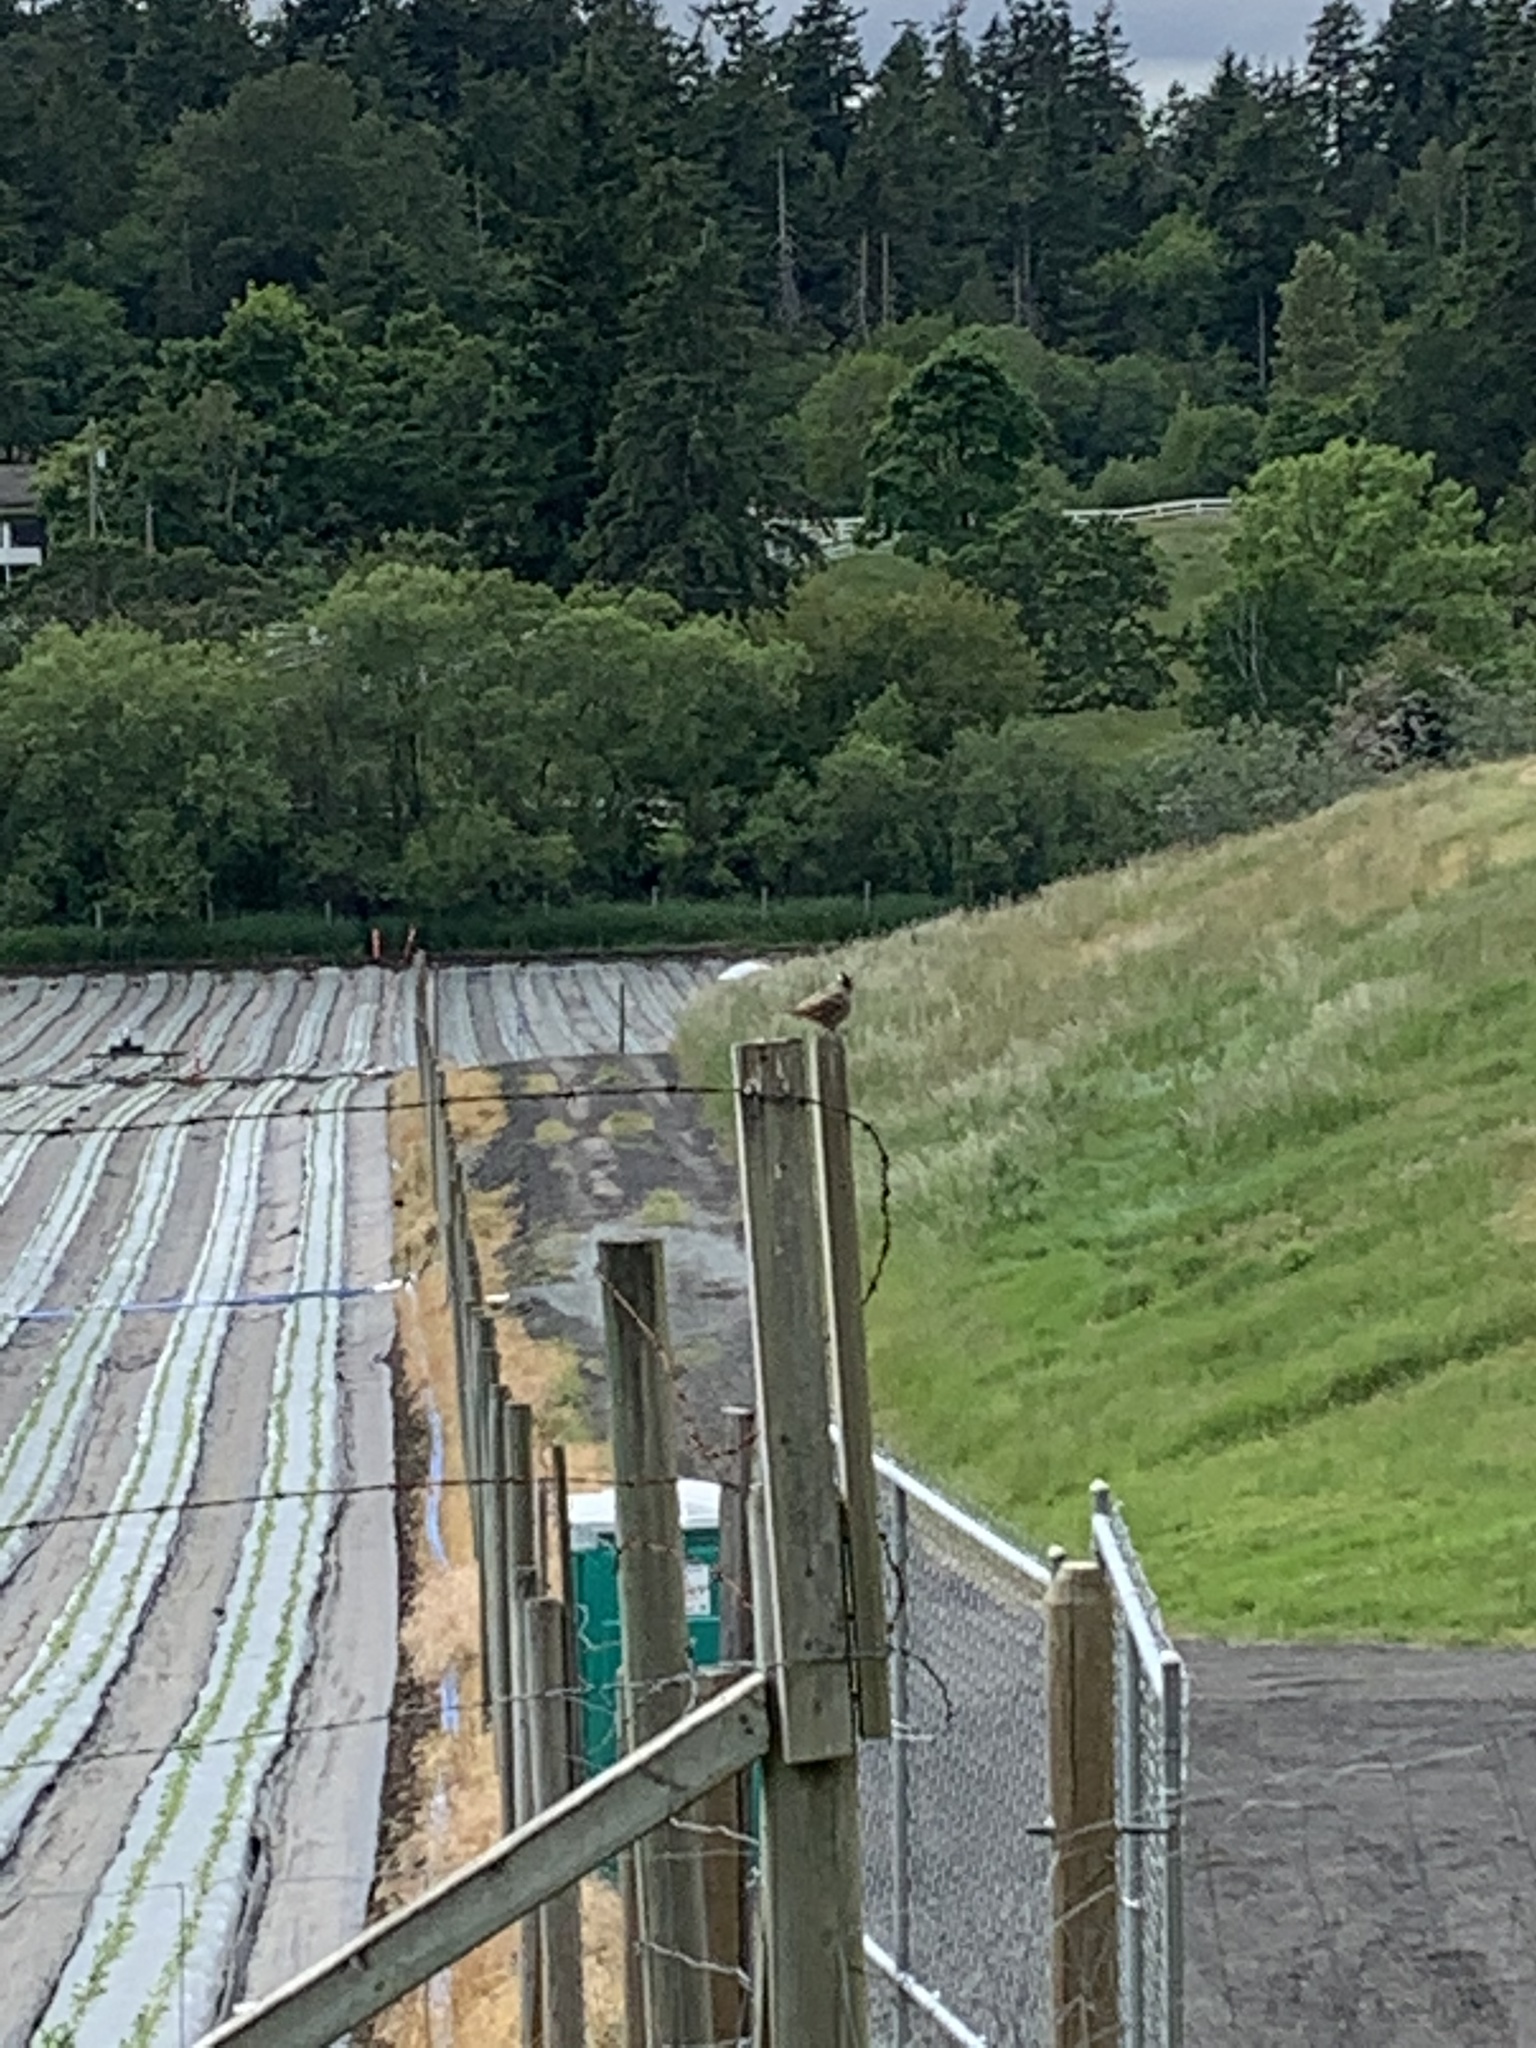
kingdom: Animalia
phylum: Chordata
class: Aves
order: Passeriformes
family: Passerellidae
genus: Zonotrichia
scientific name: Zonotrichia leucophrys
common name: White-crowned sparrow
